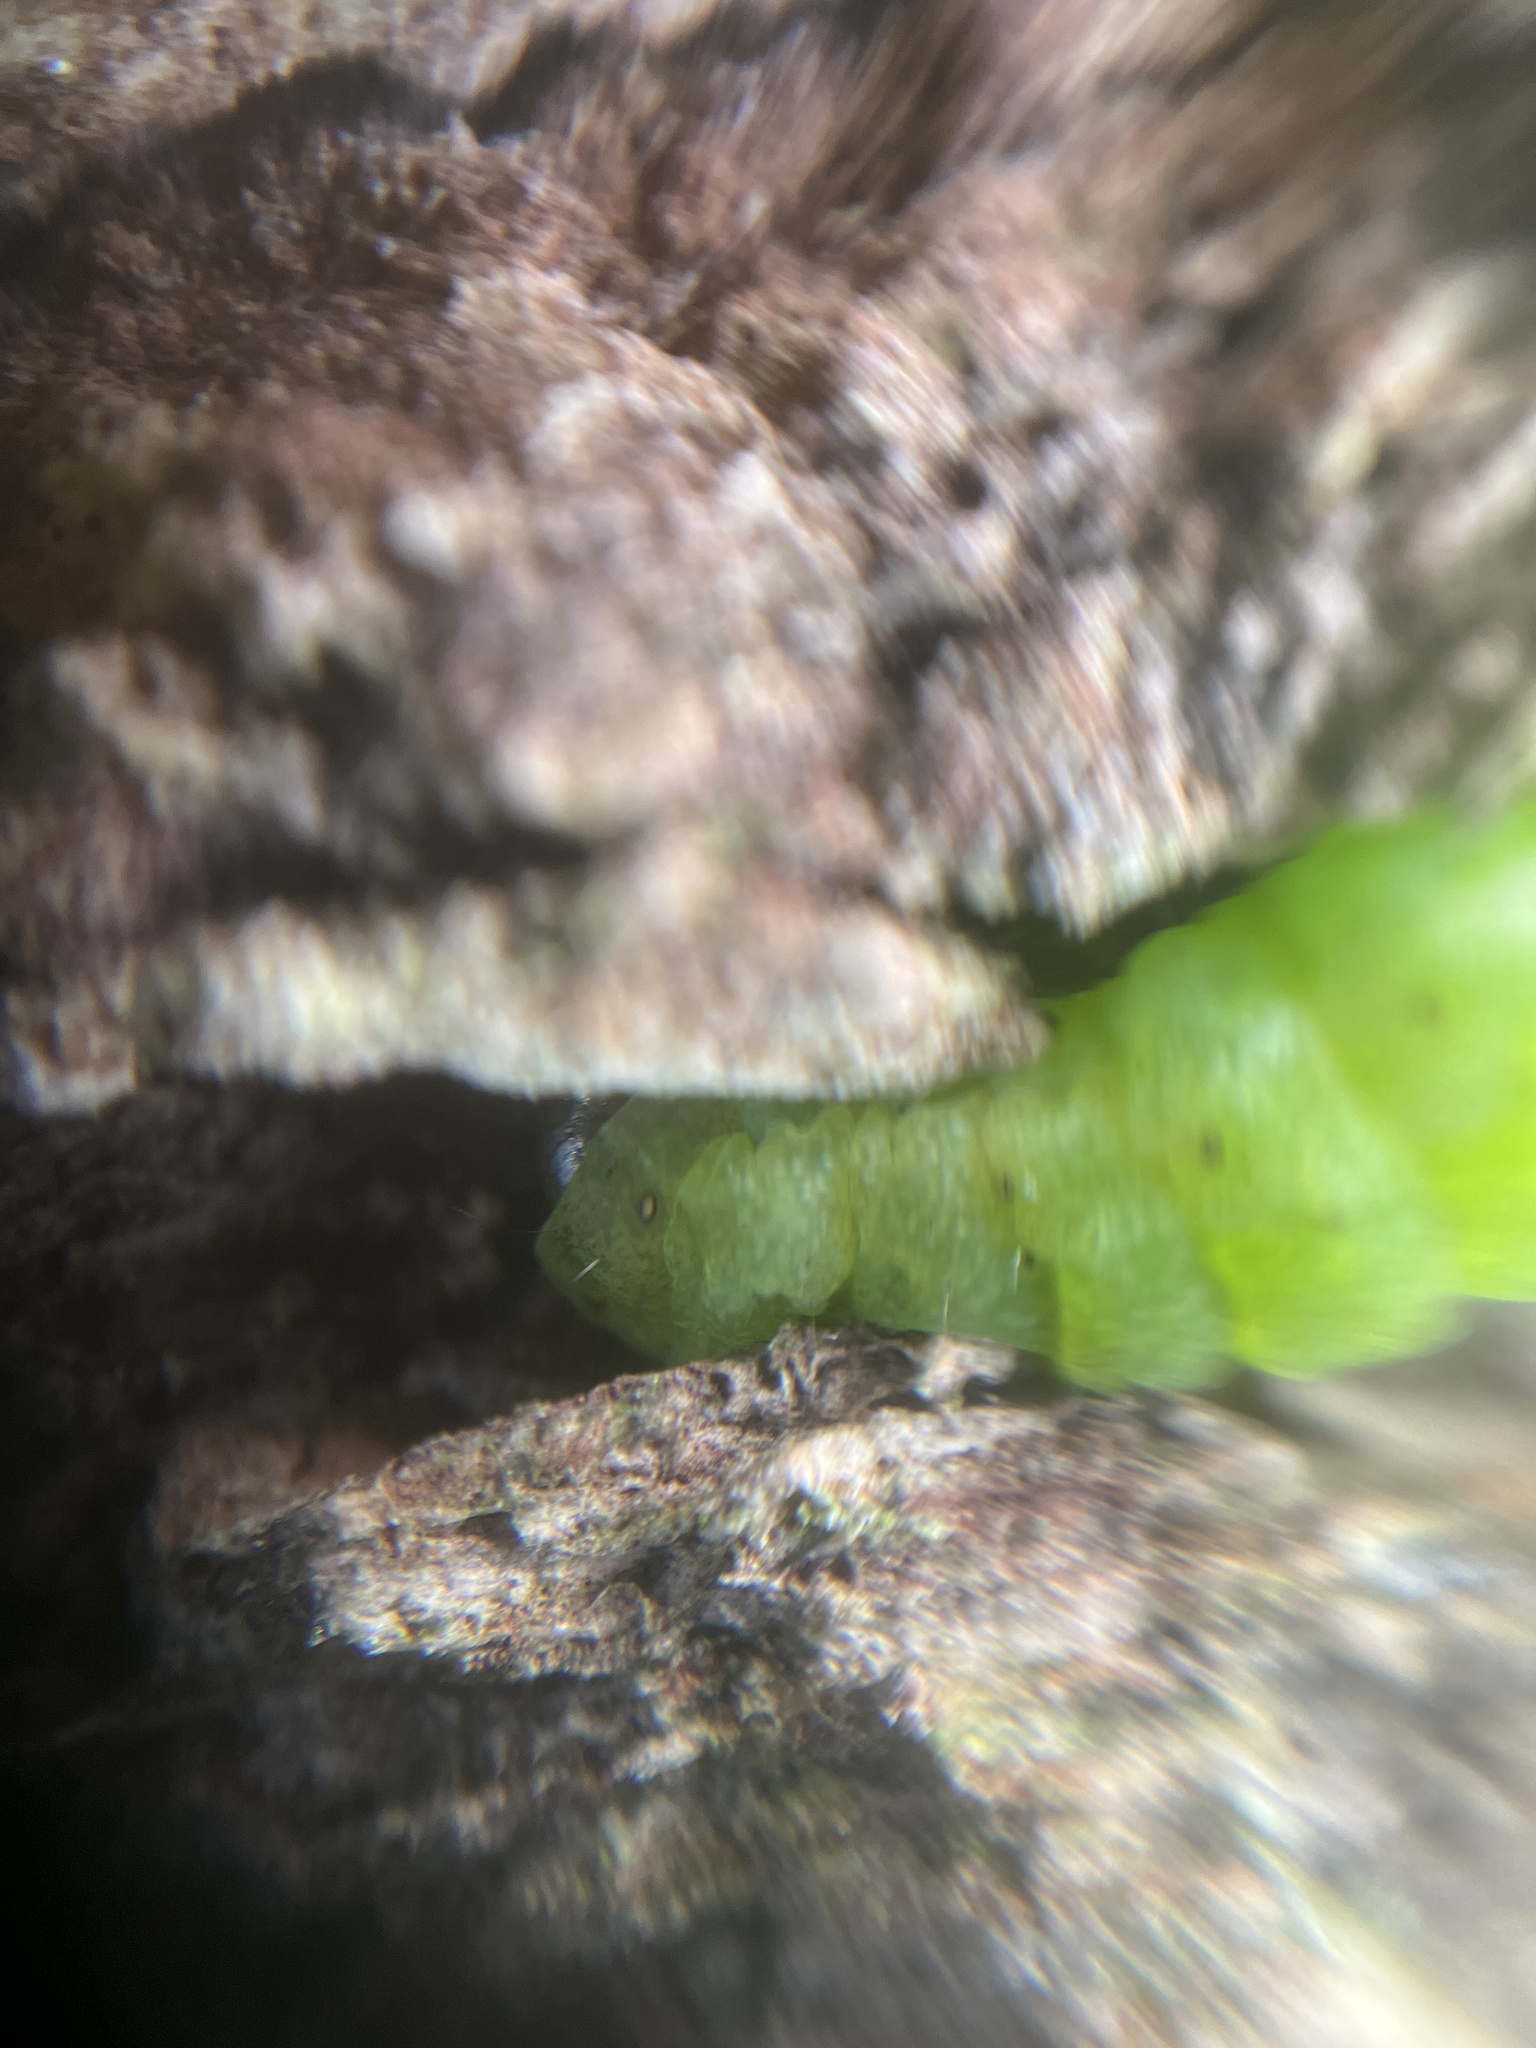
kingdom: Animalia
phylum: Arthropoda
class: Insecta
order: Lepidoptera
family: Noctuidae
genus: Phlogophora
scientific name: Phlogophora meticulosa
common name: Angle shades
